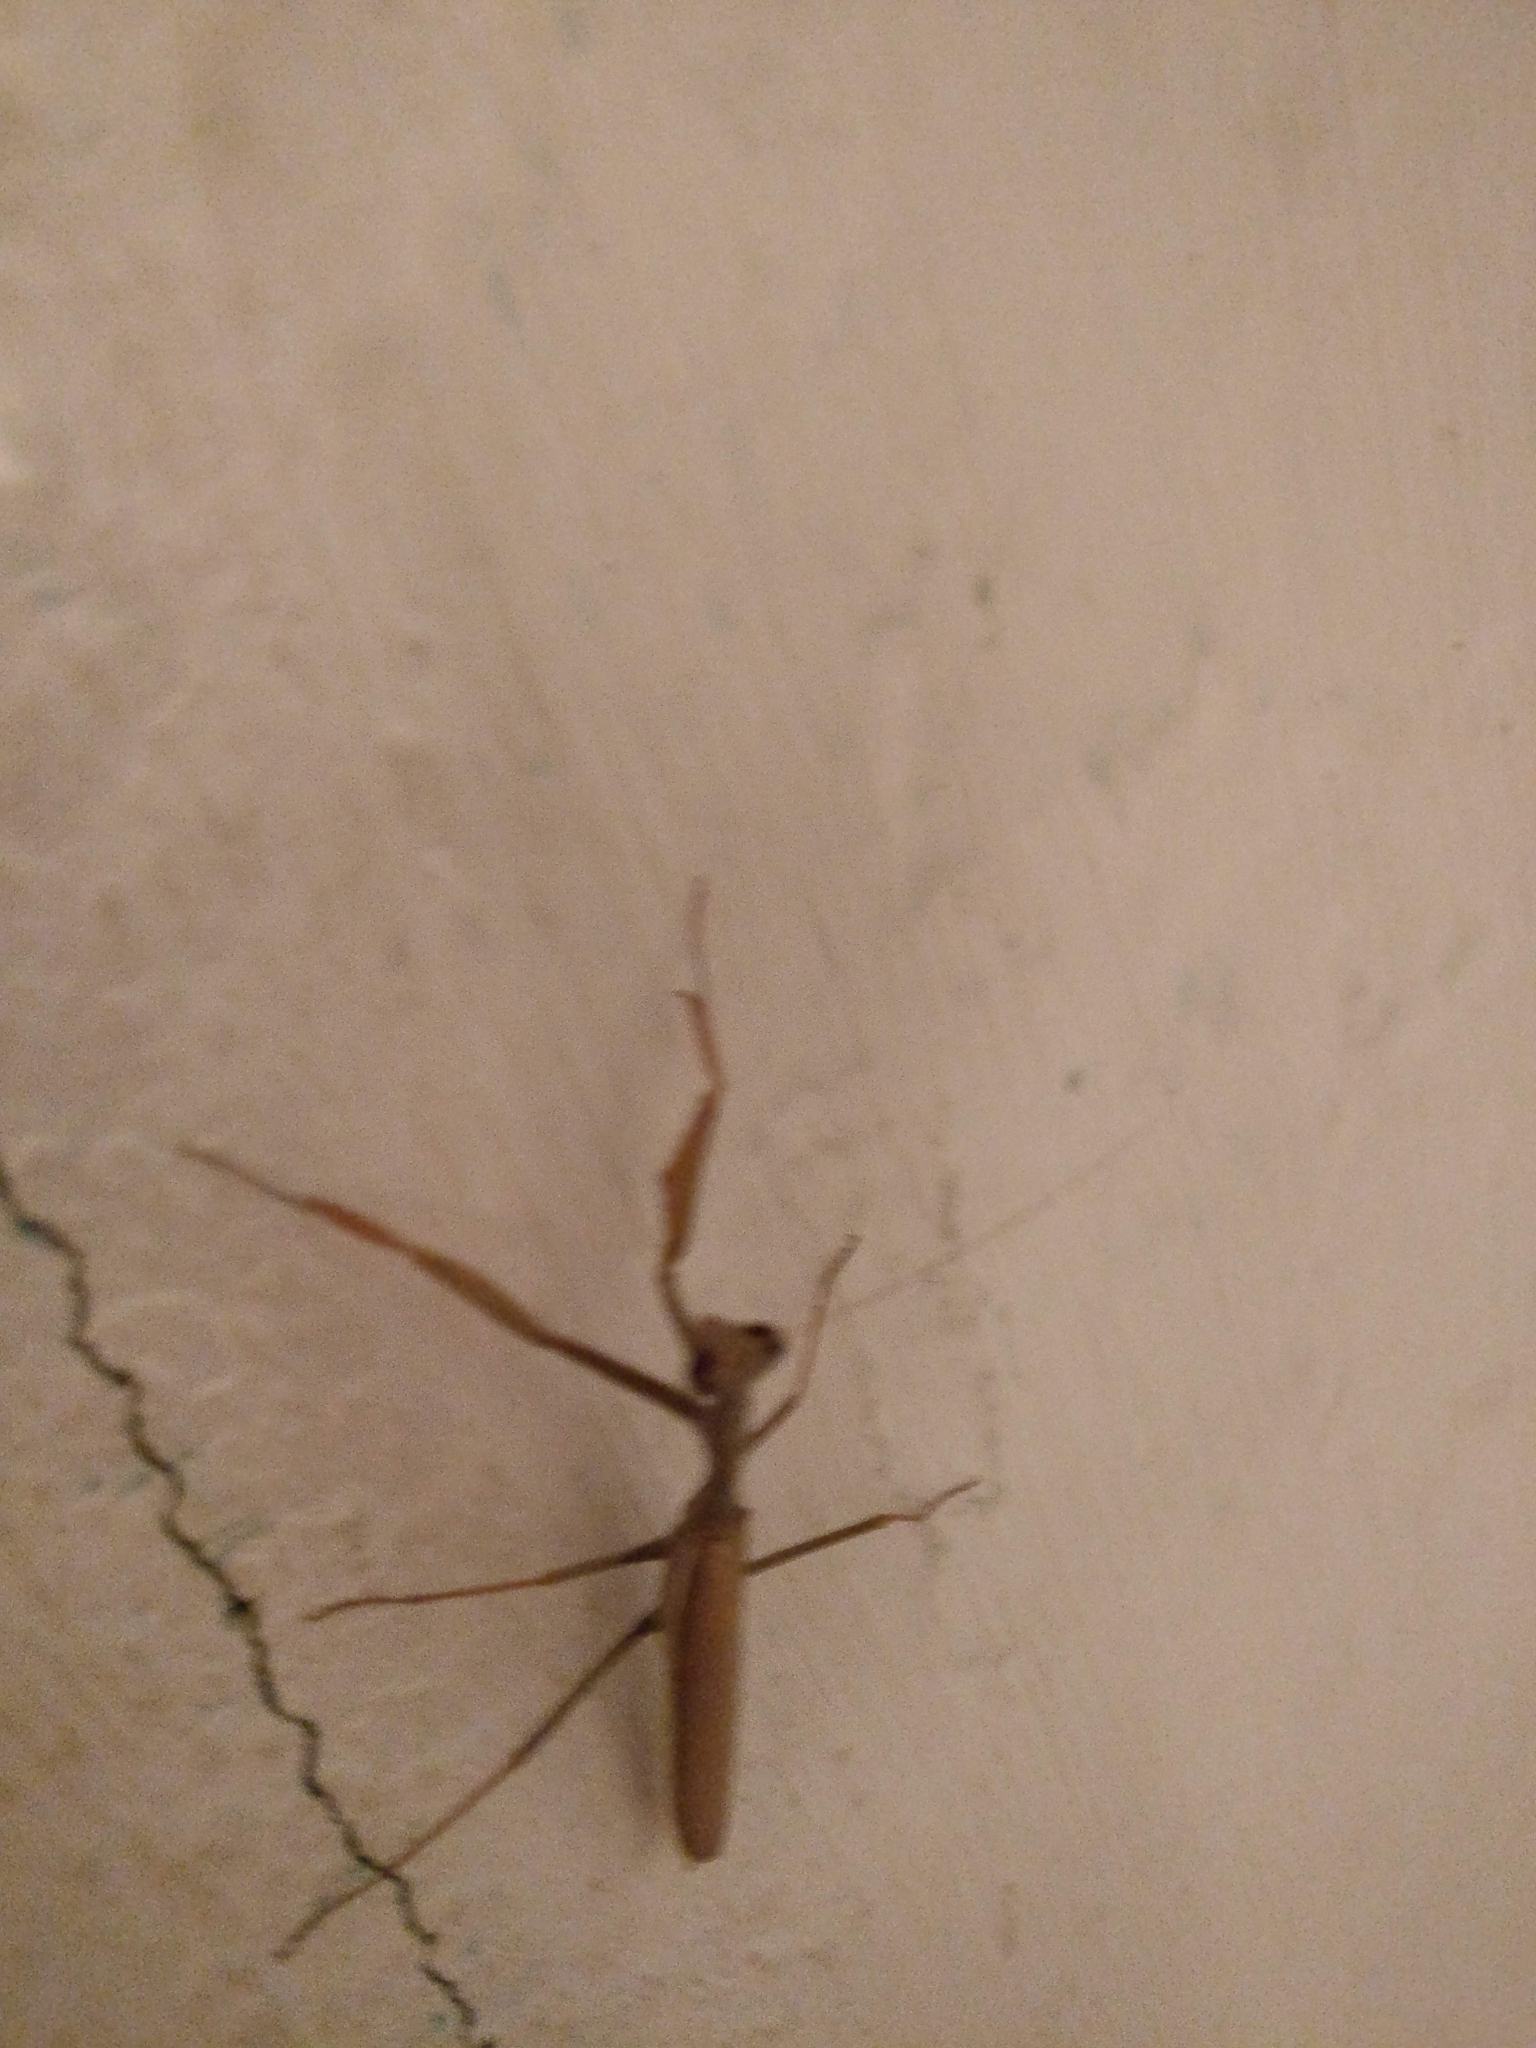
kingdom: Animalia
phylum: Arthropoda
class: Insecta
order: Mantodea
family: Eremiaphilidae
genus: Iris
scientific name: Iris oratoria
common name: Mediterranean mantis
